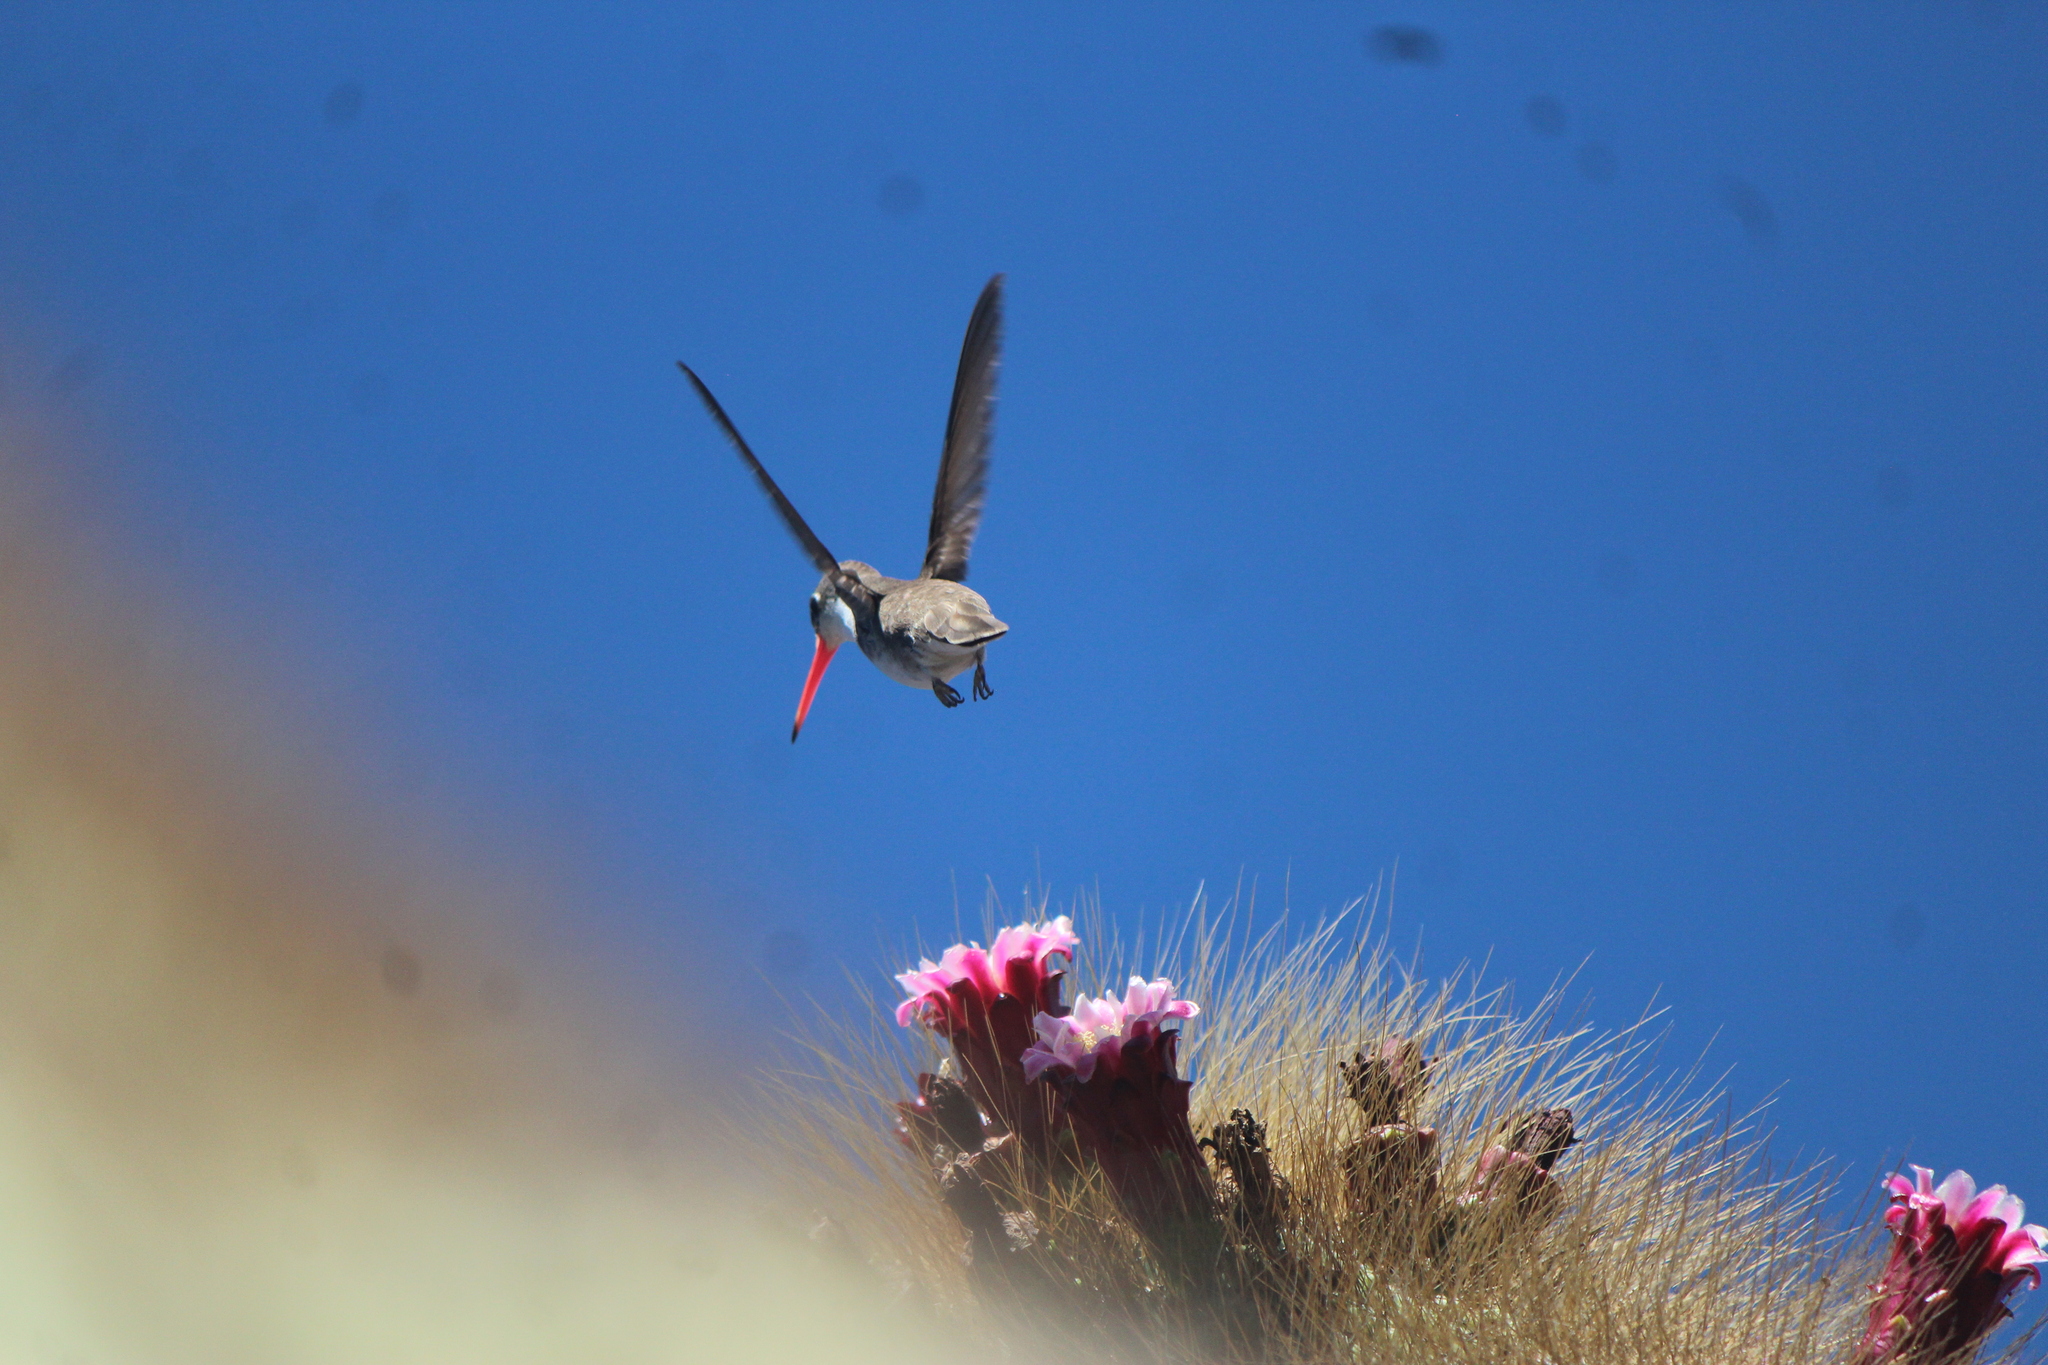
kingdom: Animalia
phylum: Chordata
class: Aves
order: Apodiformes
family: Trochilidae
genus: Leucolia
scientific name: Leucolia violiceps
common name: Violet-crowned hummingbird
